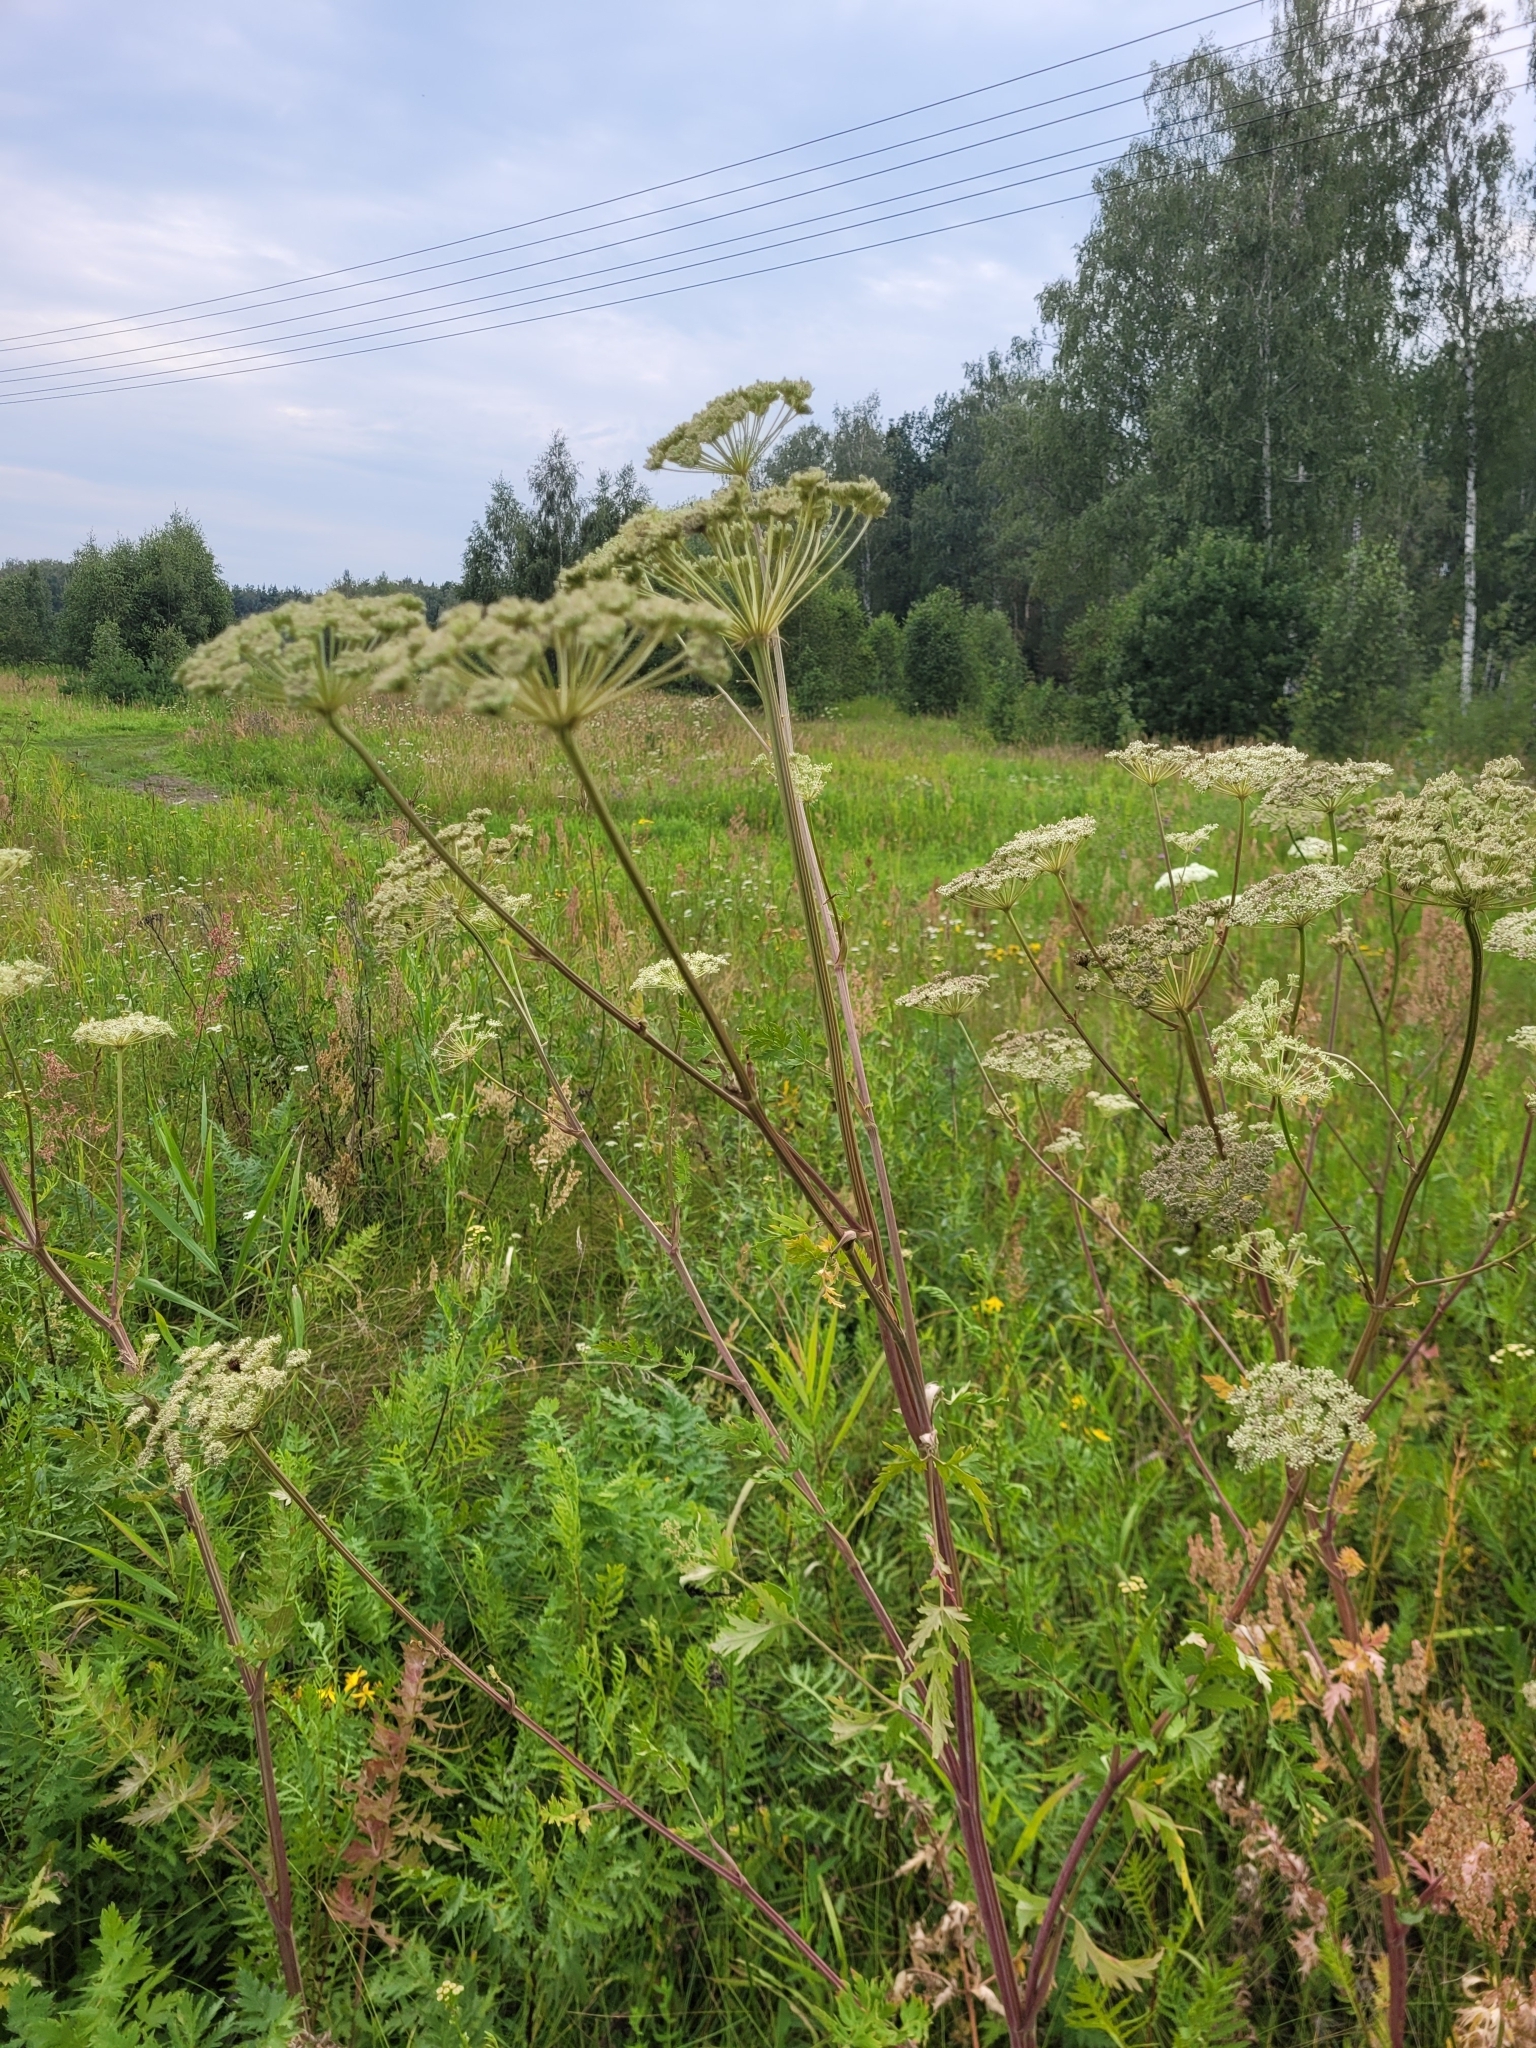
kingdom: Plantae
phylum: Tracheophyta
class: Magnoliopsida
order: Apiales
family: Apiaceae
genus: Seseli
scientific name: Seseli libanotis
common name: Mooncarrot
